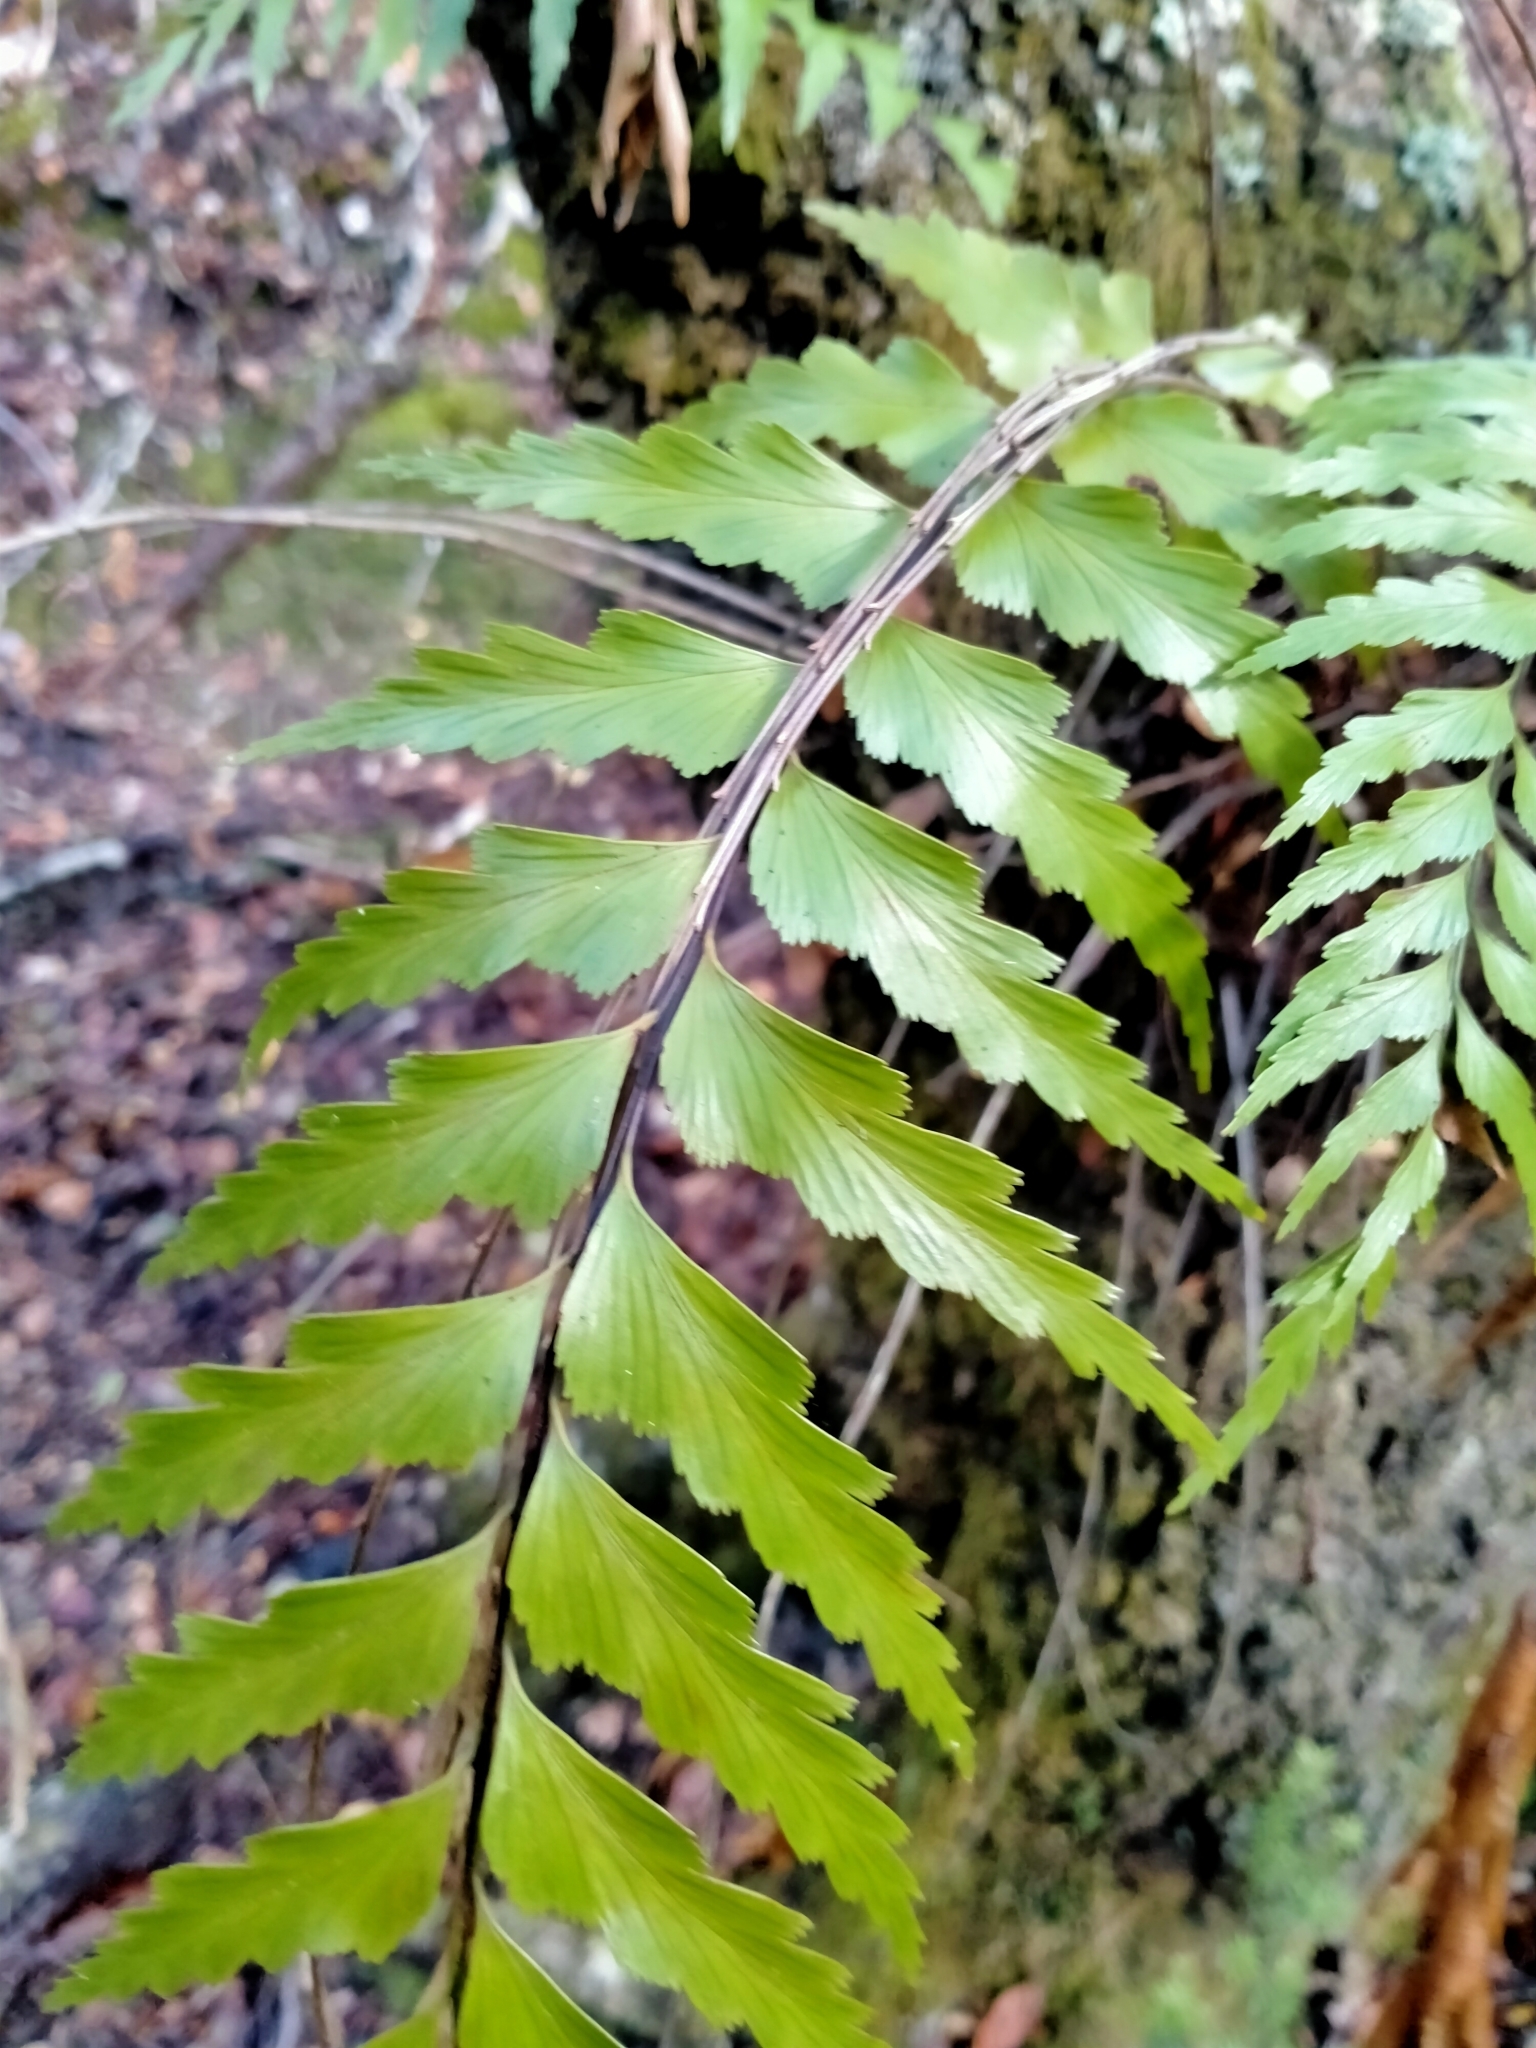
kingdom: Plantae
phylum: Tracheophyta
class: Polypodiopsida
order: Polypodiales
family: Aspleniaceae
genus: Asplenium
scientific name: Asplenium polyodon
